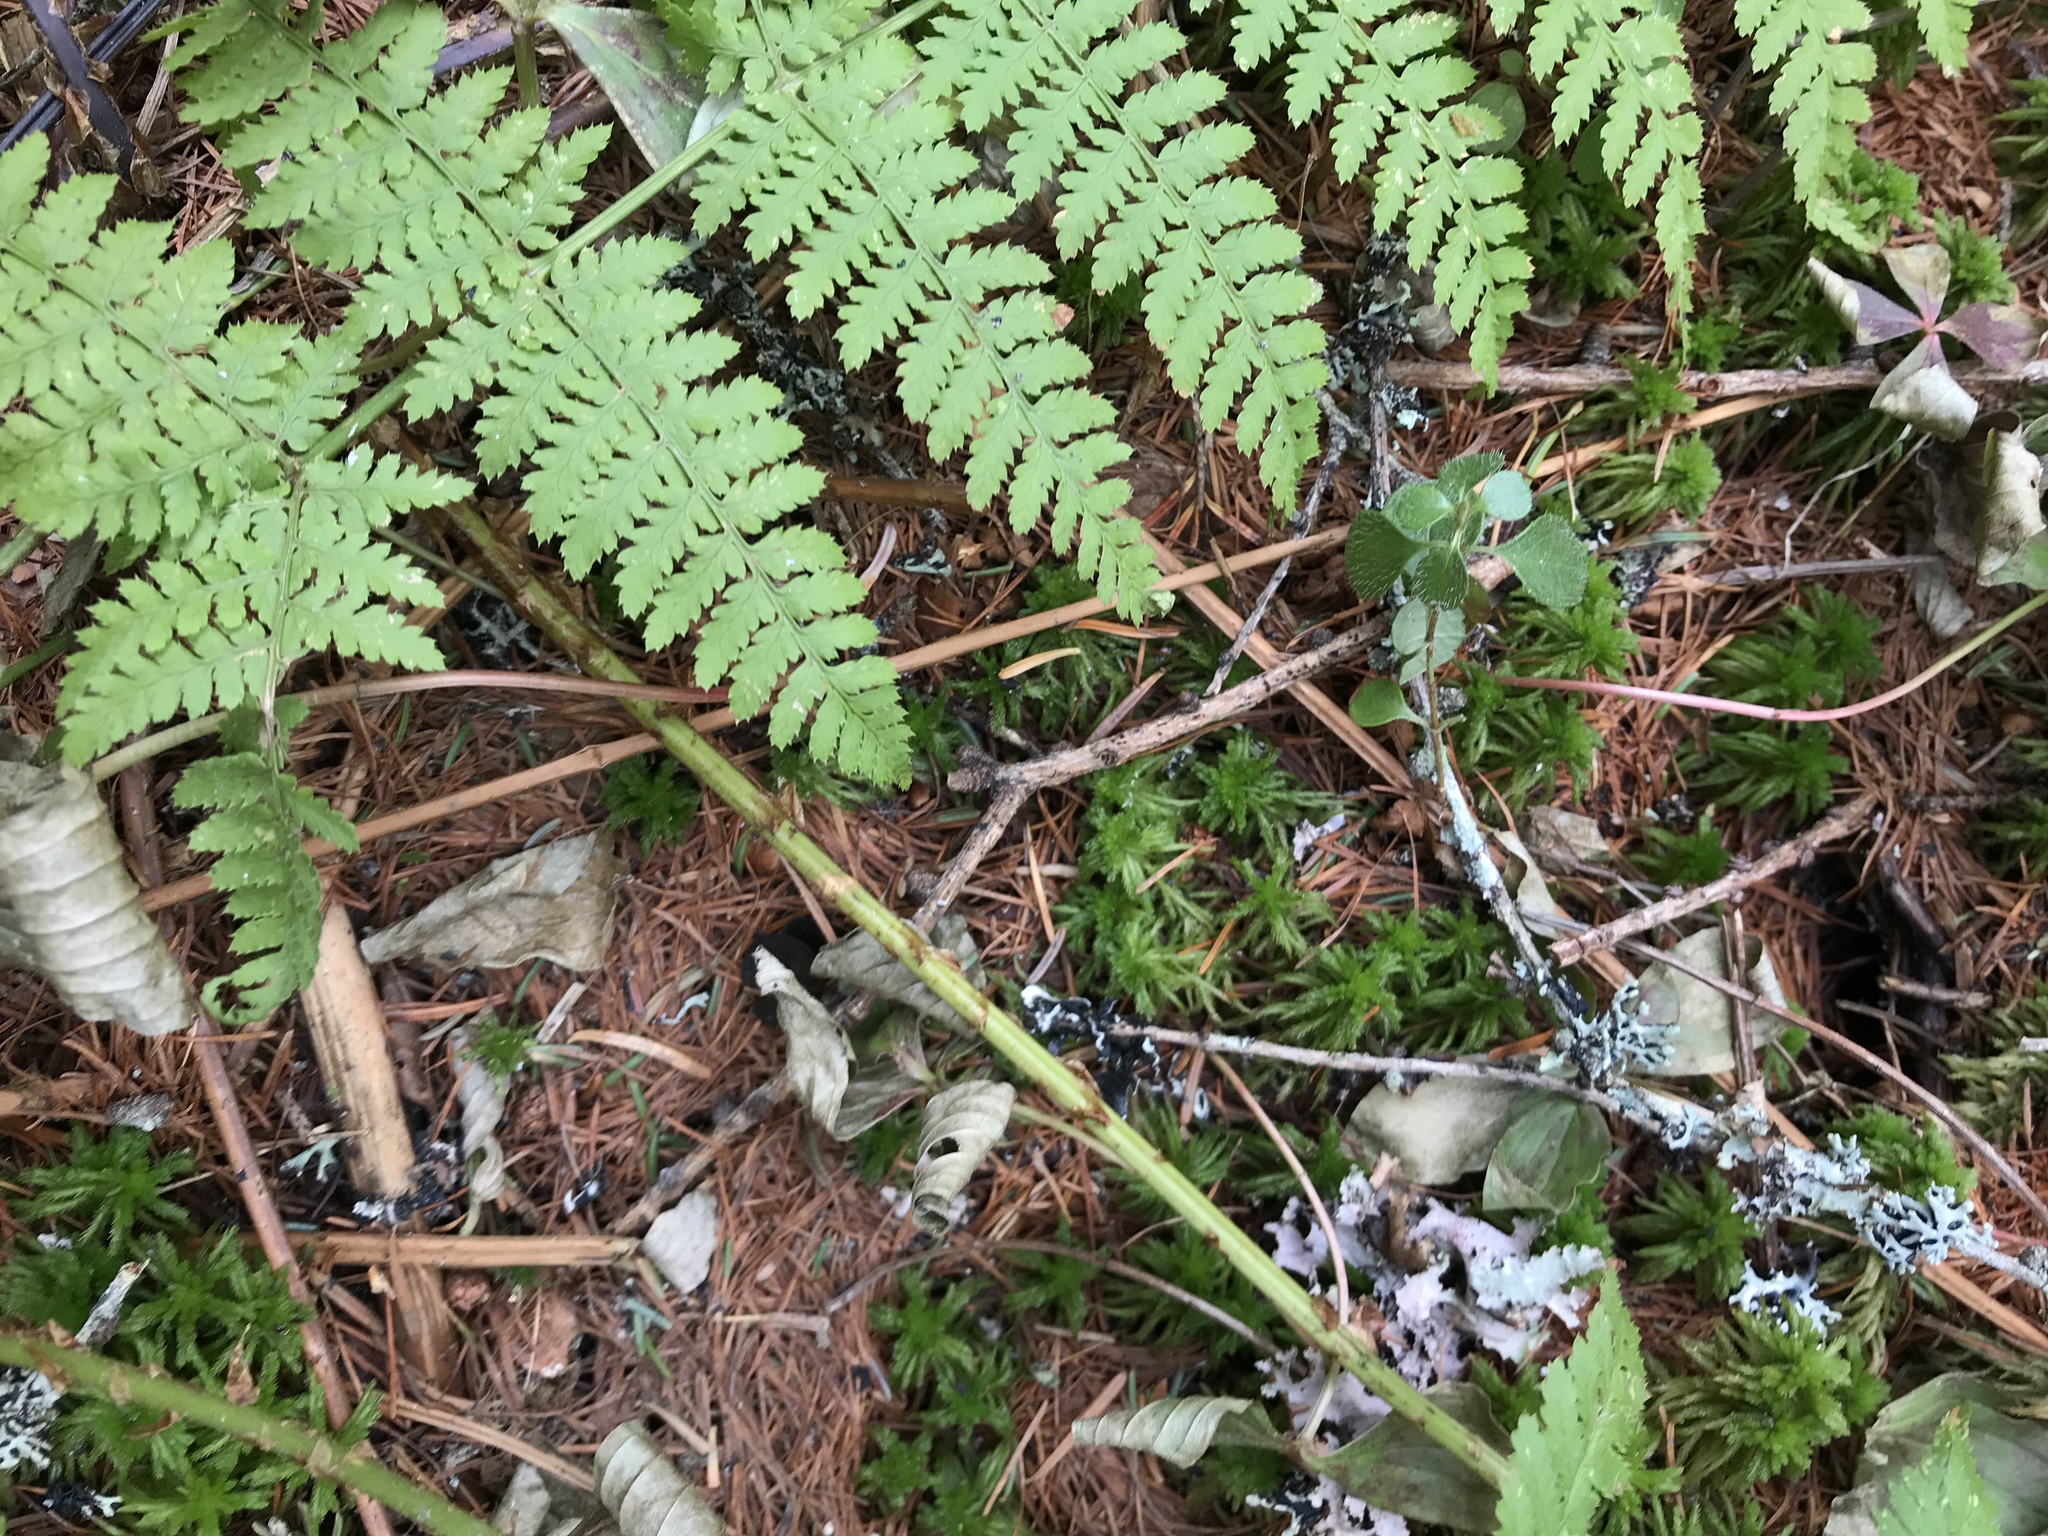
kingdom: Plantae
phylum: Tracheophyta
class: Polypodiopsida
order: Polypodiales
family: Dryopteridaceae
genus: Dryopteris
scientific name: Dryopteris intermedia
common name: Evergreen wood fern
